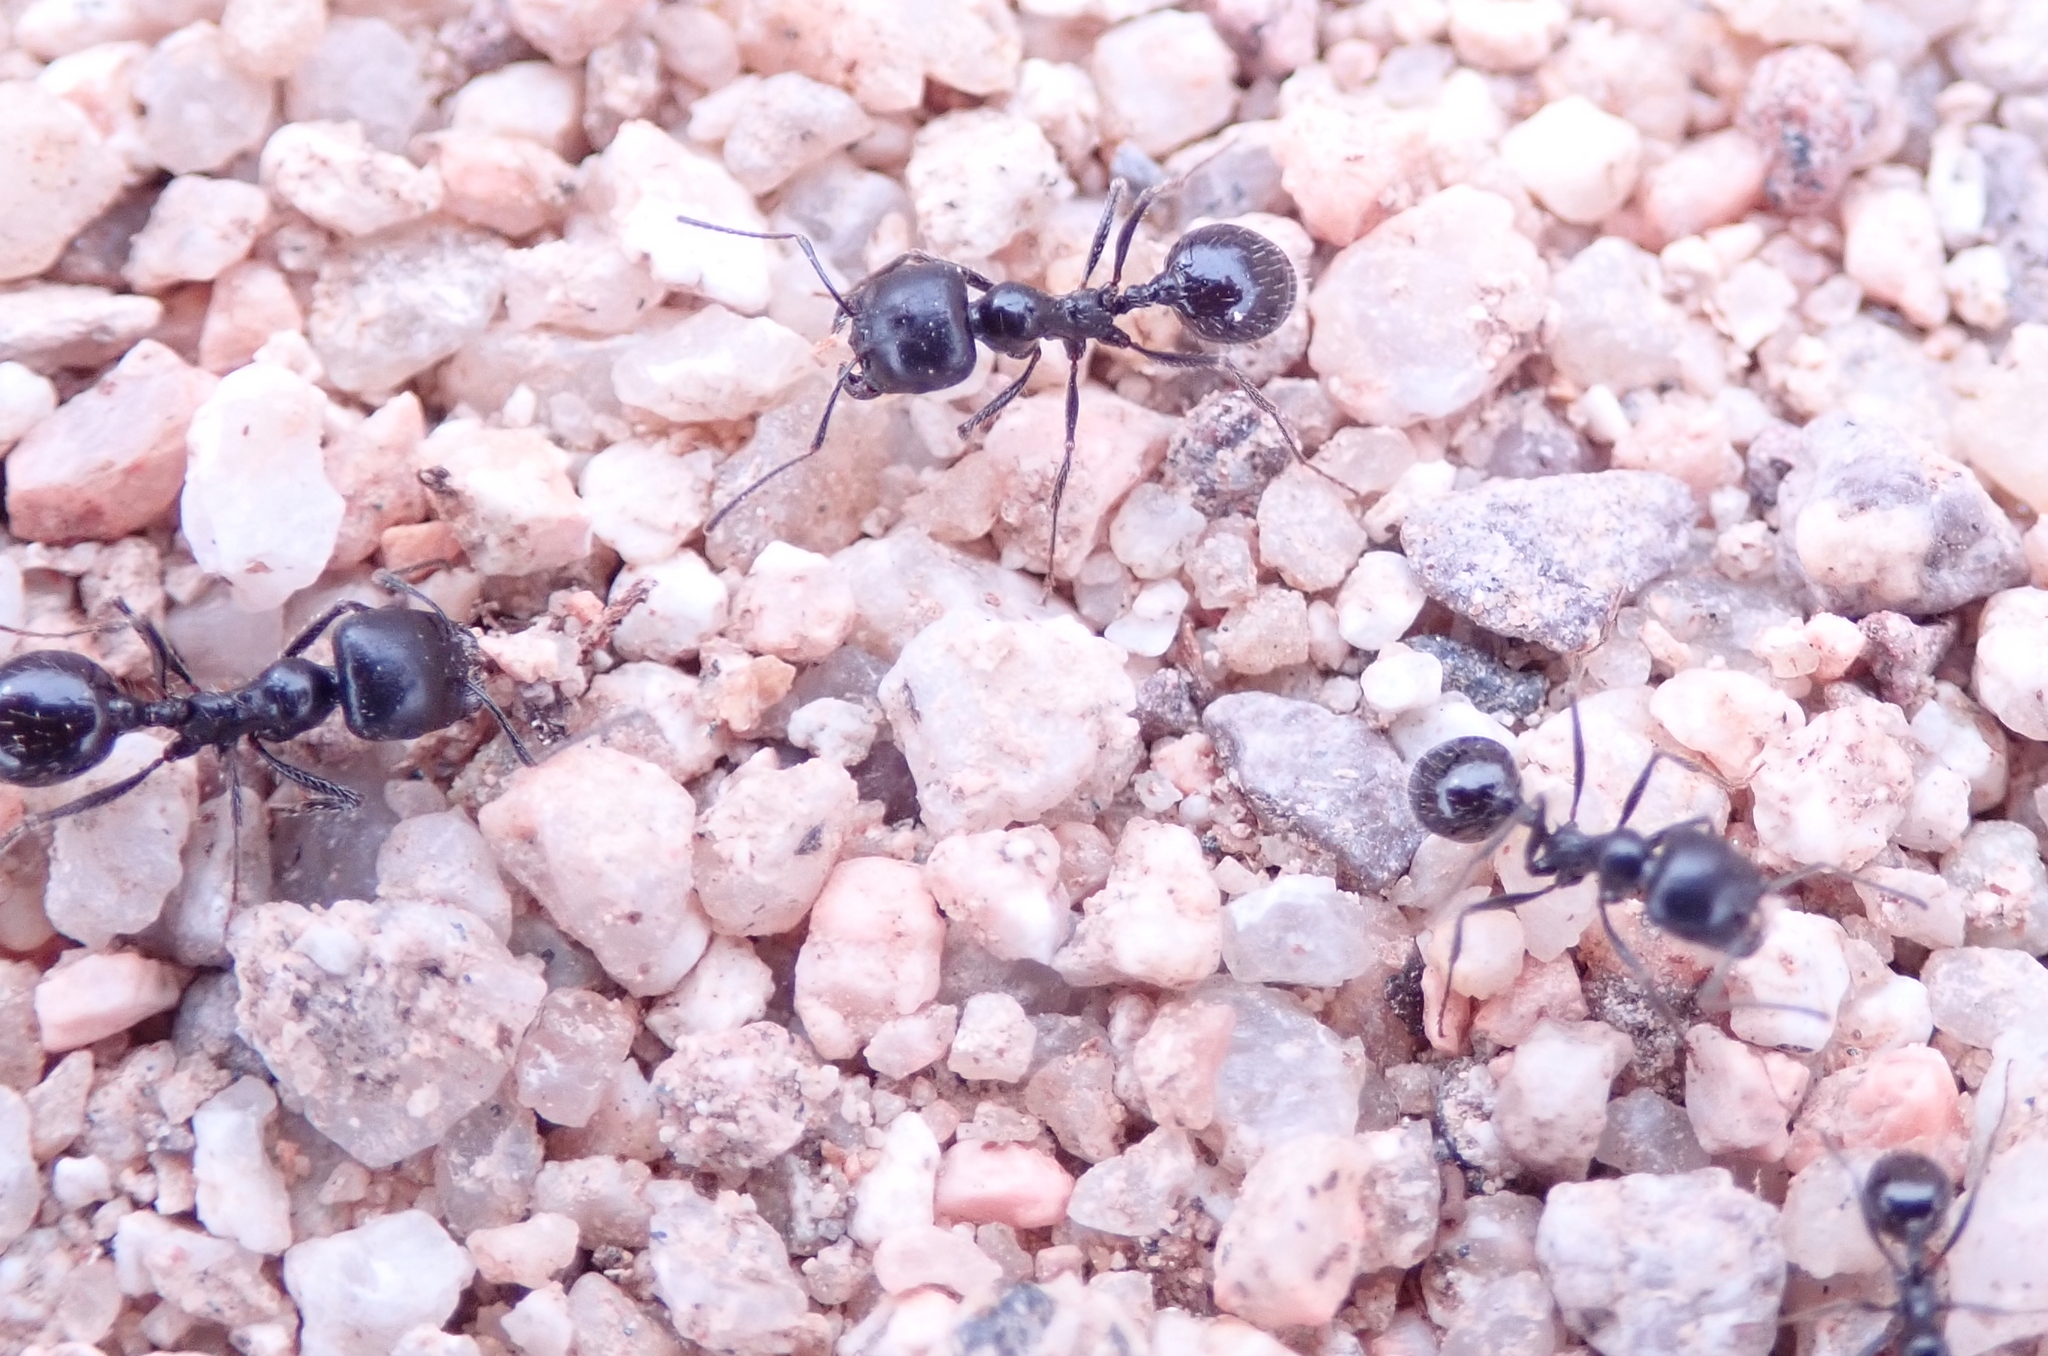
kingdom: Animalia
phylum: Arthropoda
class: Insecta
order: Hymenoptera
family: Formicidae
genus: Messor
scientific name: Messor pergandei
